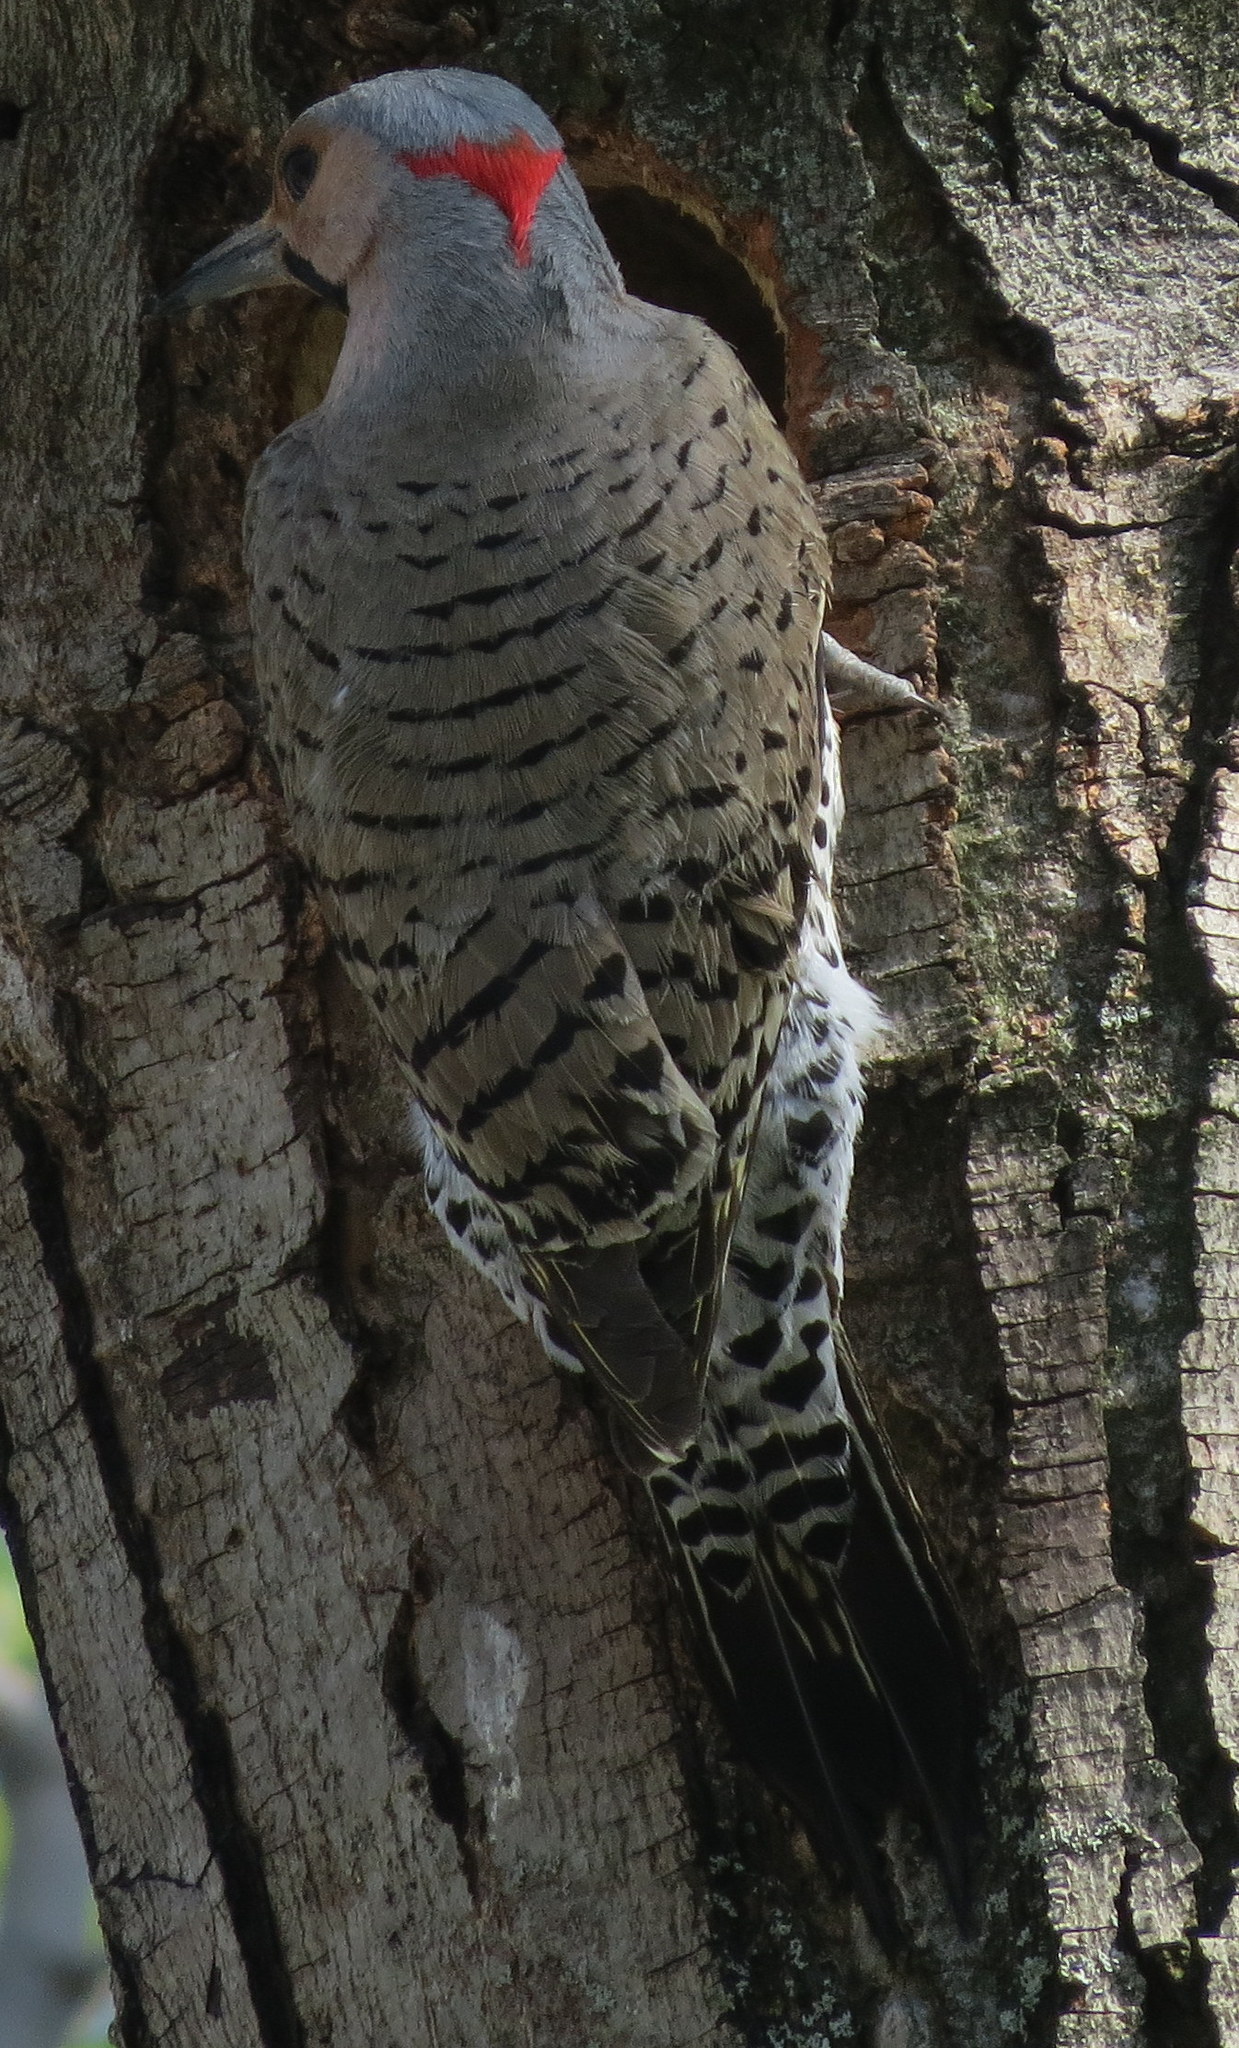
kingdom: Animalia
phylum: Chordata
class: Aves
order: Piciformes
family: Picidae
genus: Colaptes
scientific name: Colaptes auratus
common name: Northern flicker
